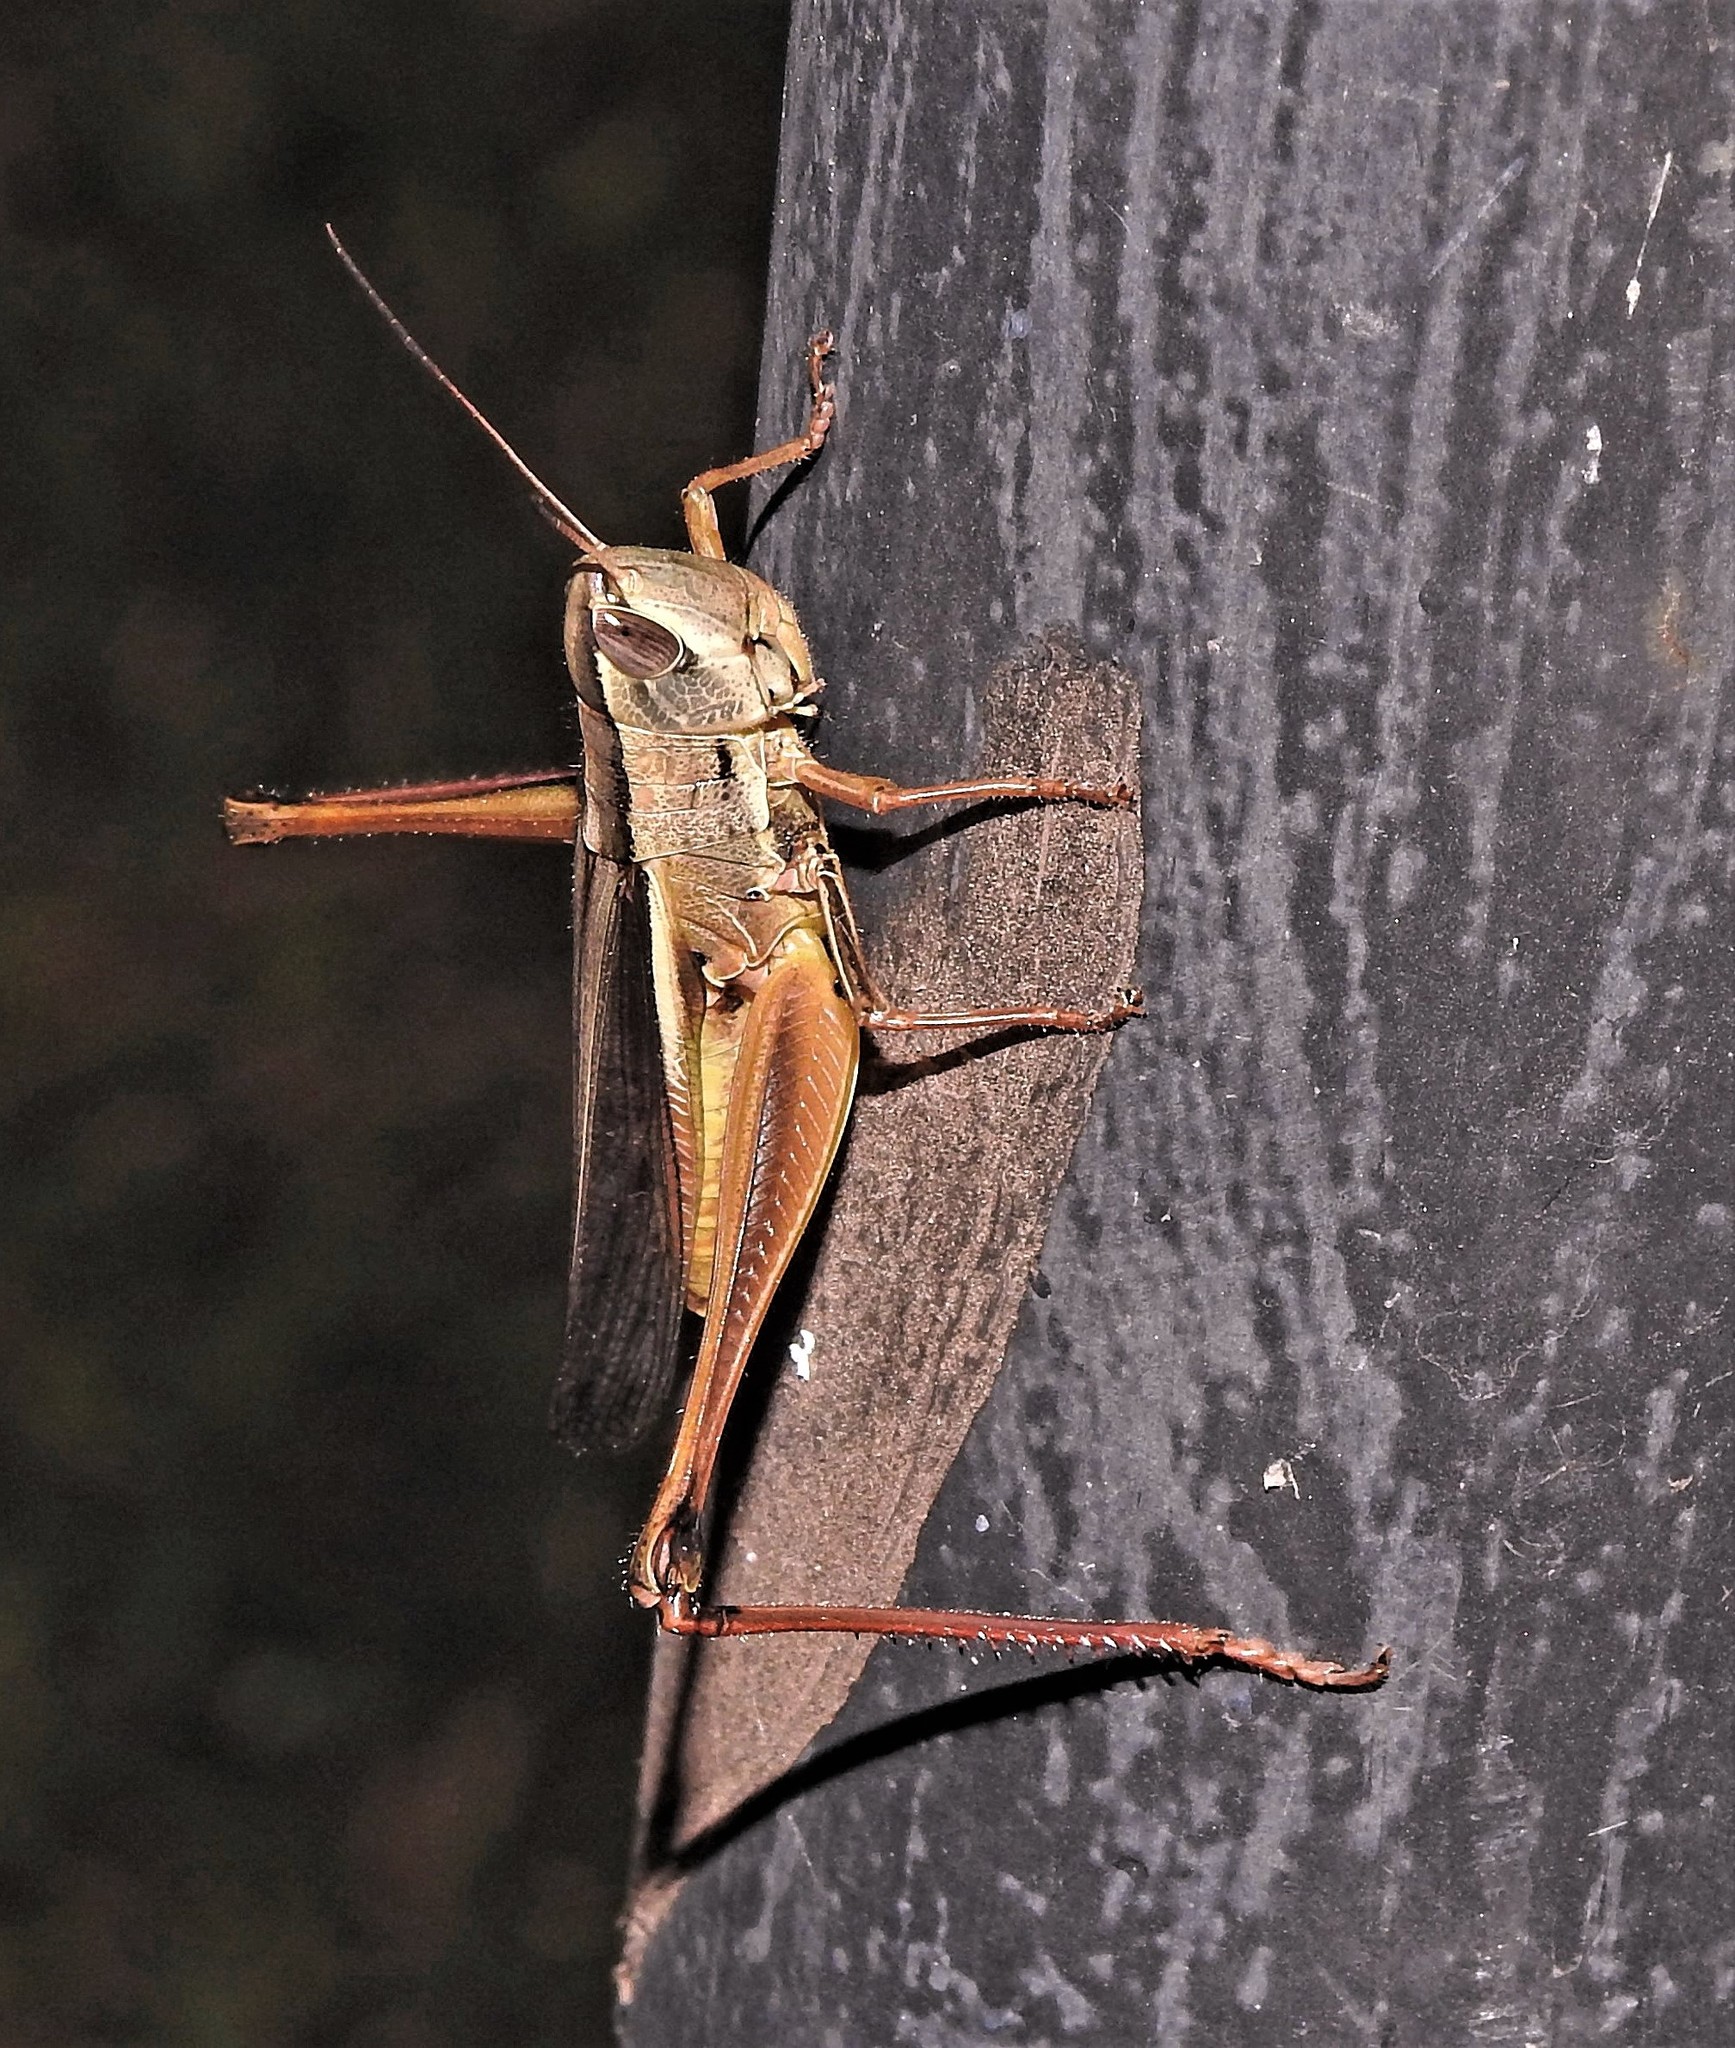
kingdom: Animalia
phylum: Arthropoda
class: Insecta
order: Orthoptera
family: Acrididae
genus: Staurorhectus
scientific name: Staurorhectus longicornis
